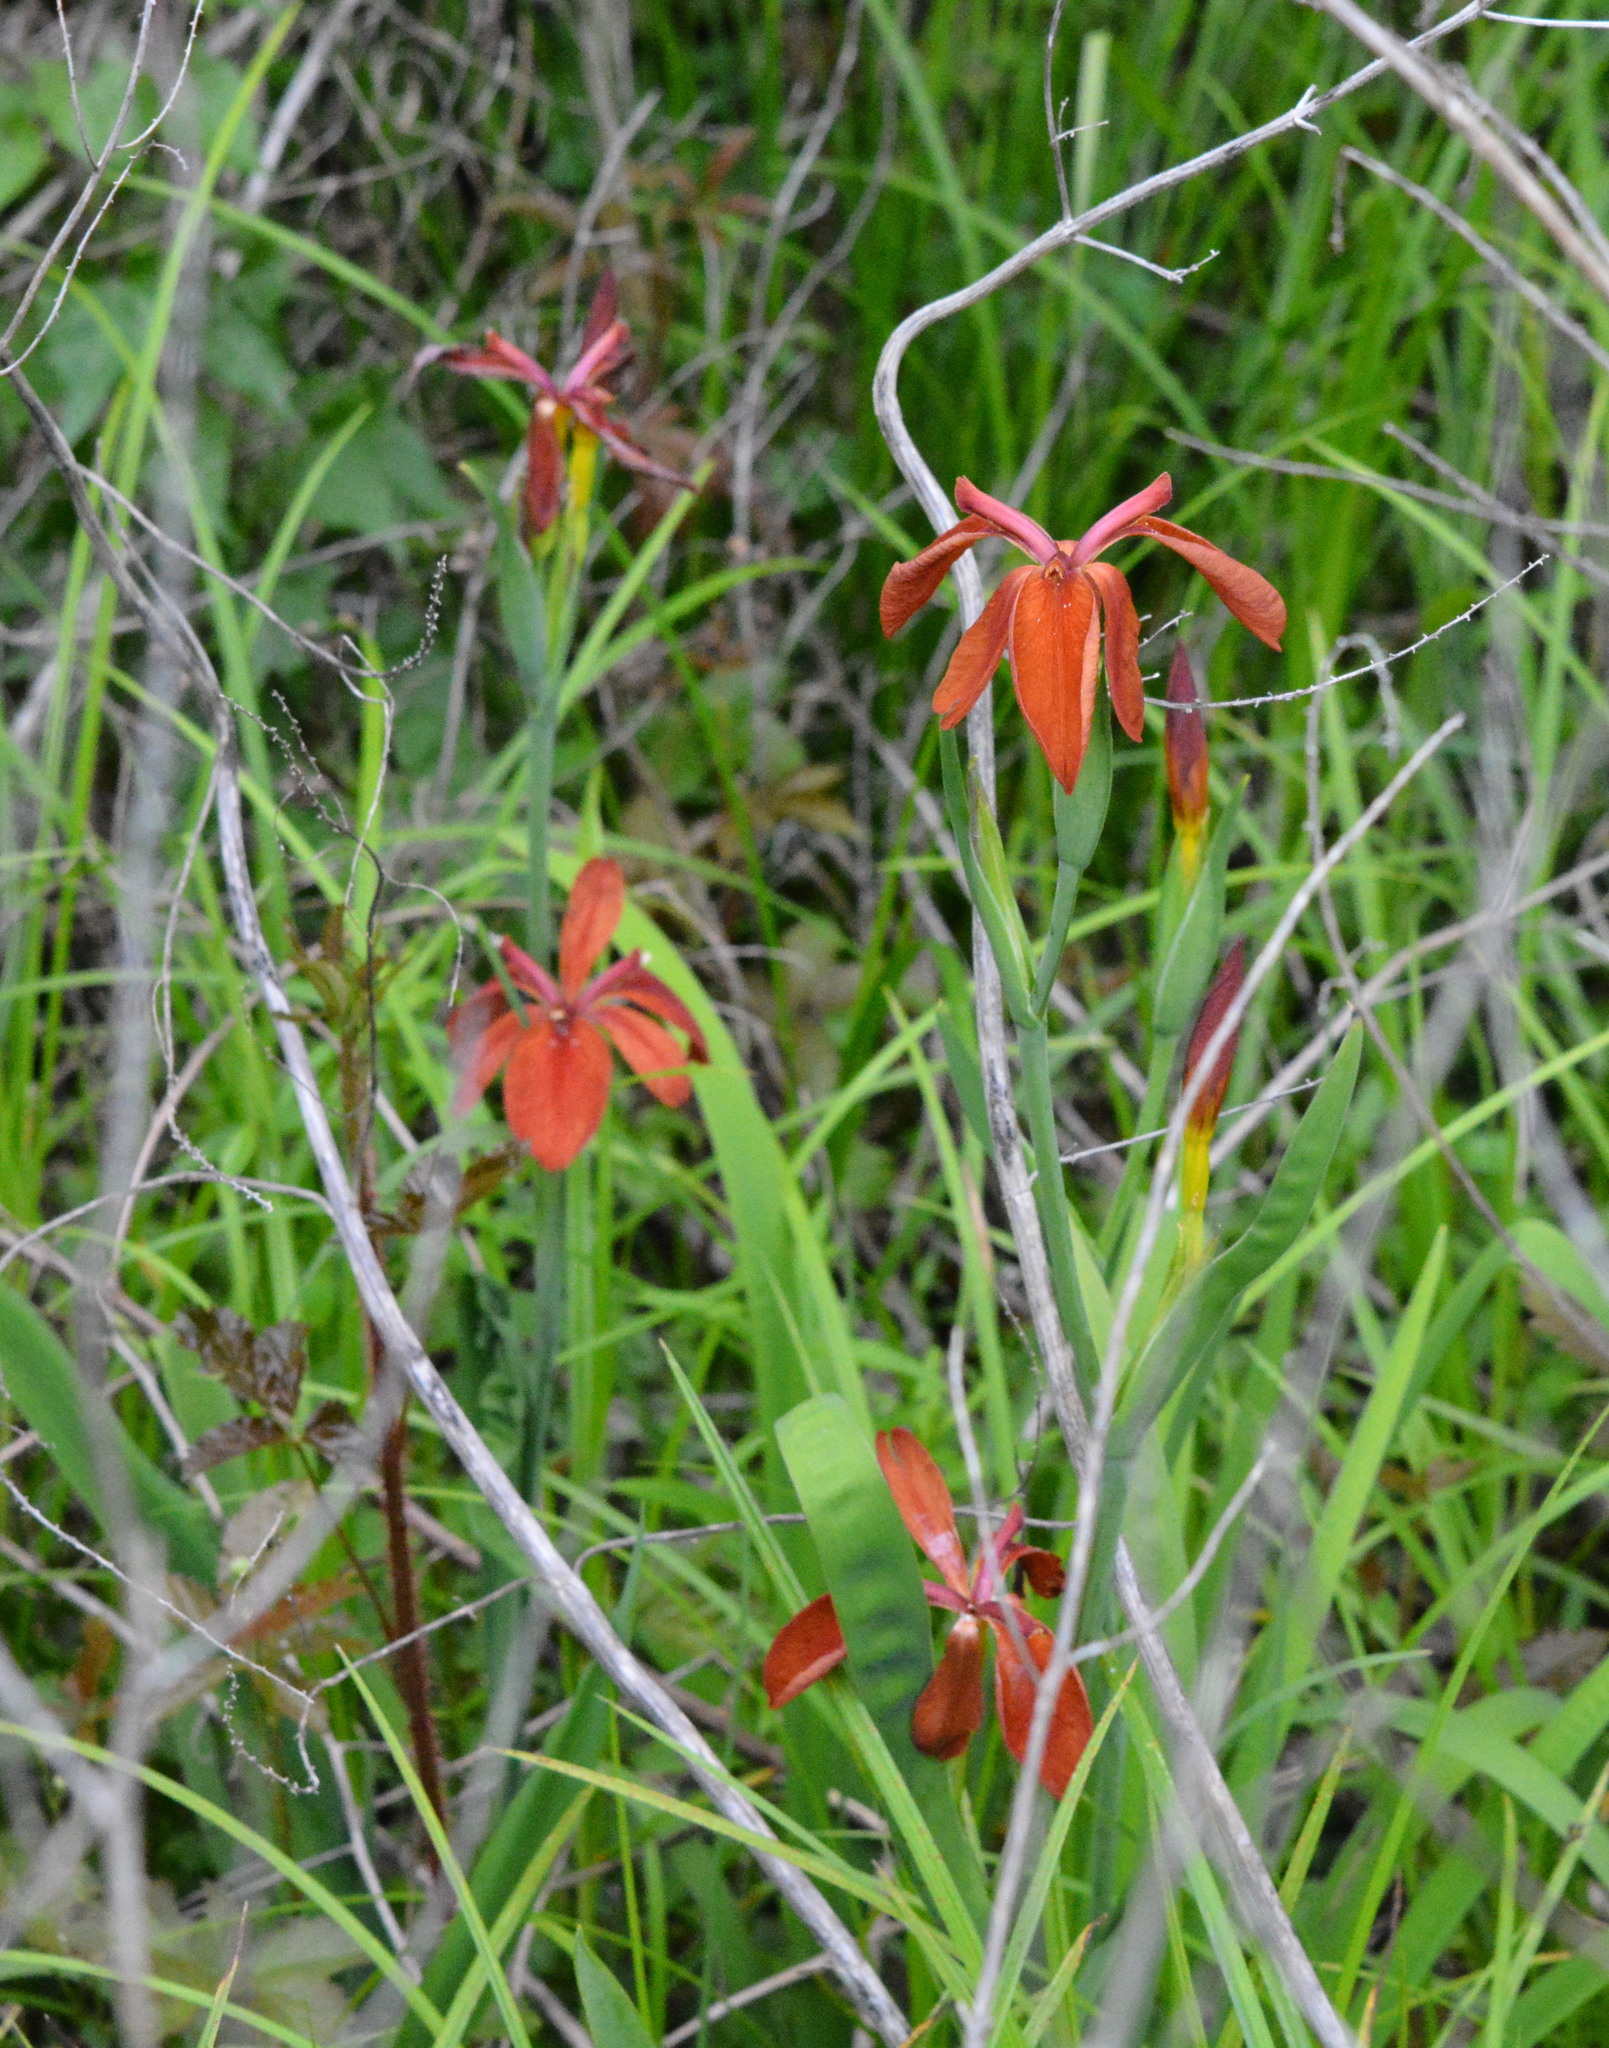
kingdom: Plantae
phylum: Tracheophyta
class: Liliopsida
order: Asparagales
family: Iridaceae
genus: Iris
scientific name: Iris fulva
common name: Copper iris
